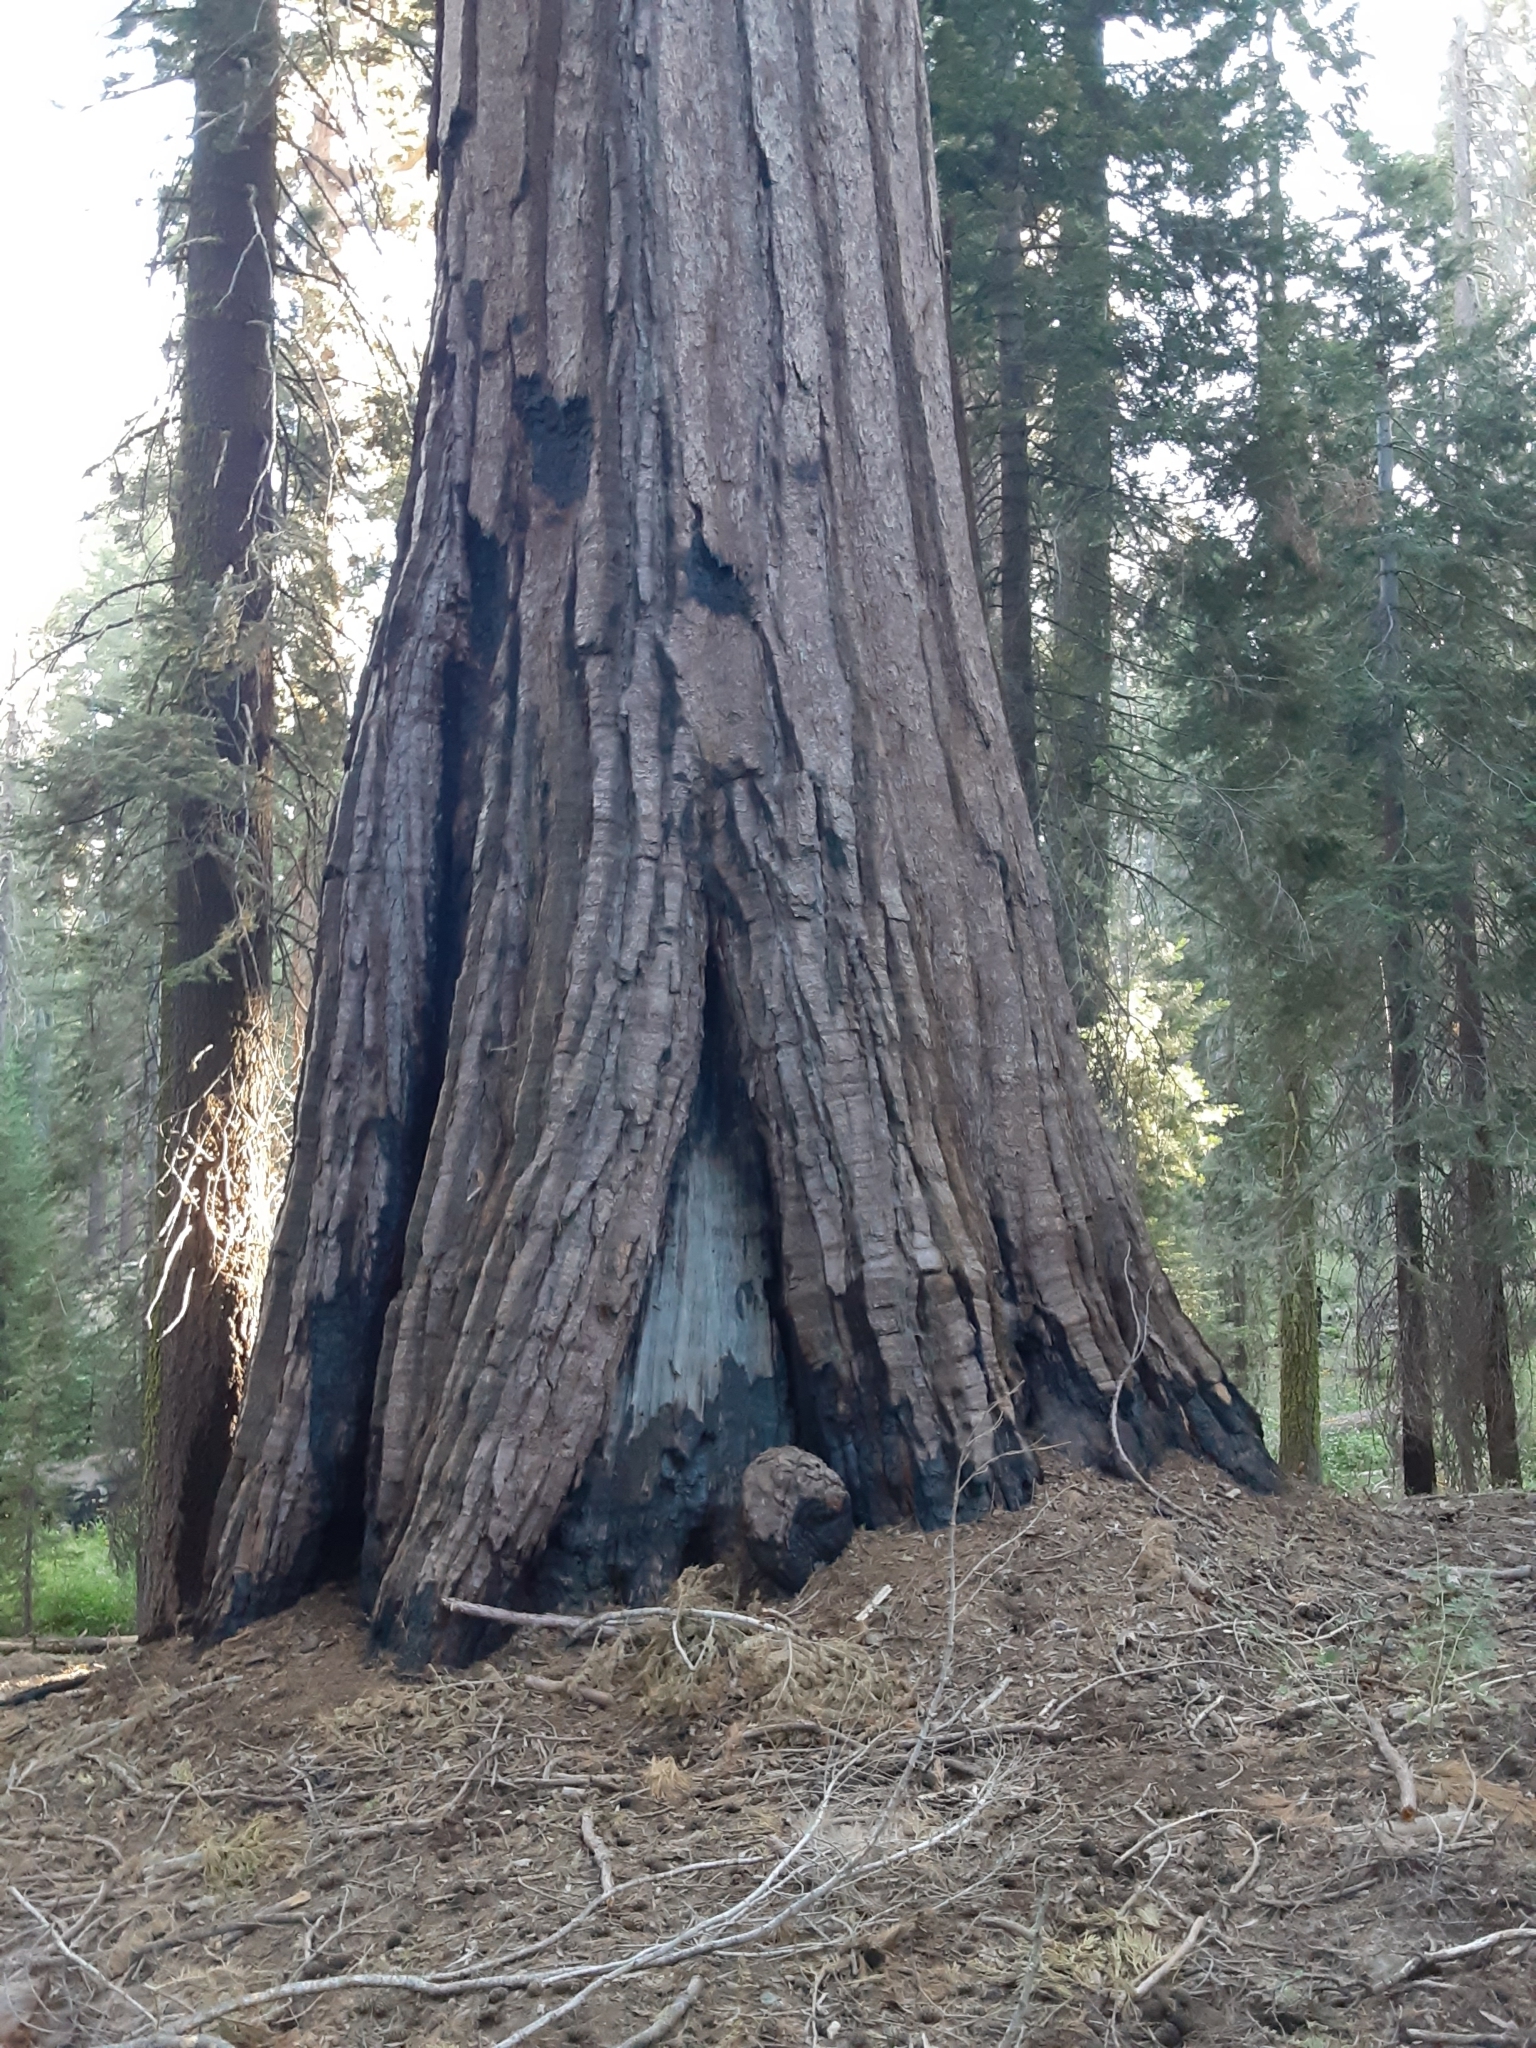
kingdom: Plantae
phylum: Tracheophyta
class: Pinopsida
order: Pinales
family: Cupressaceae
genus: Sequoiadendron
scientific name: Sequoiadendron giganteum
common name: Wellingtonia
